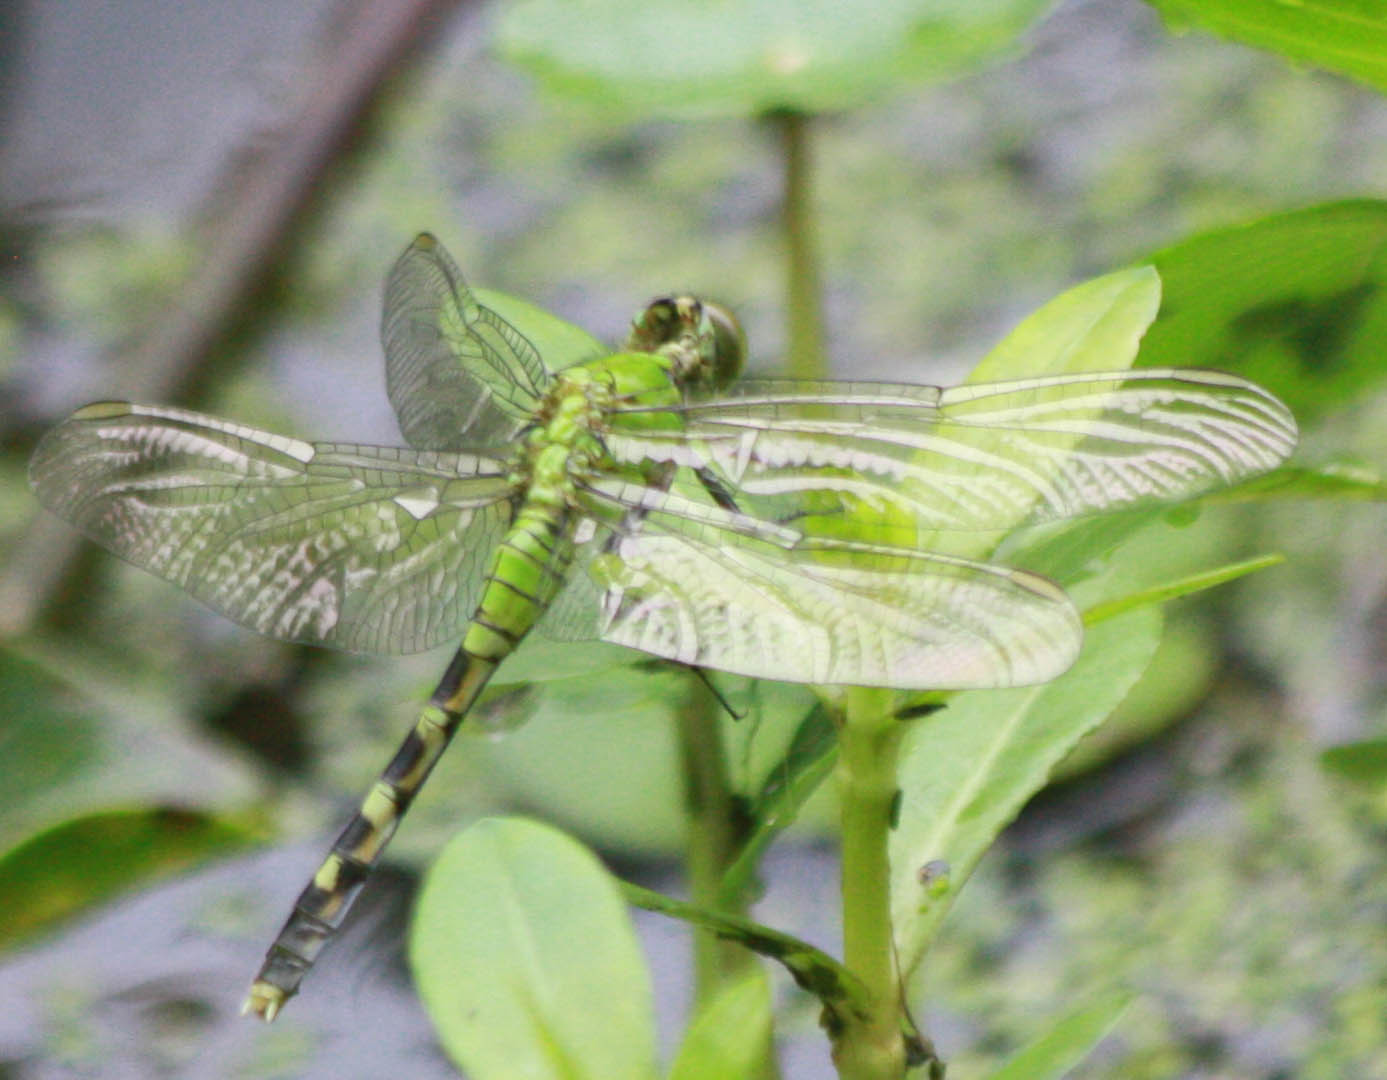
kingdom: Animalia
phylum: Arthropoda
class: Insecta
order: Odonata
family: Libellulidae
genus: Erythemis
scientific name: Erythemis simplicicollis
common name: Eastern pondhawk
